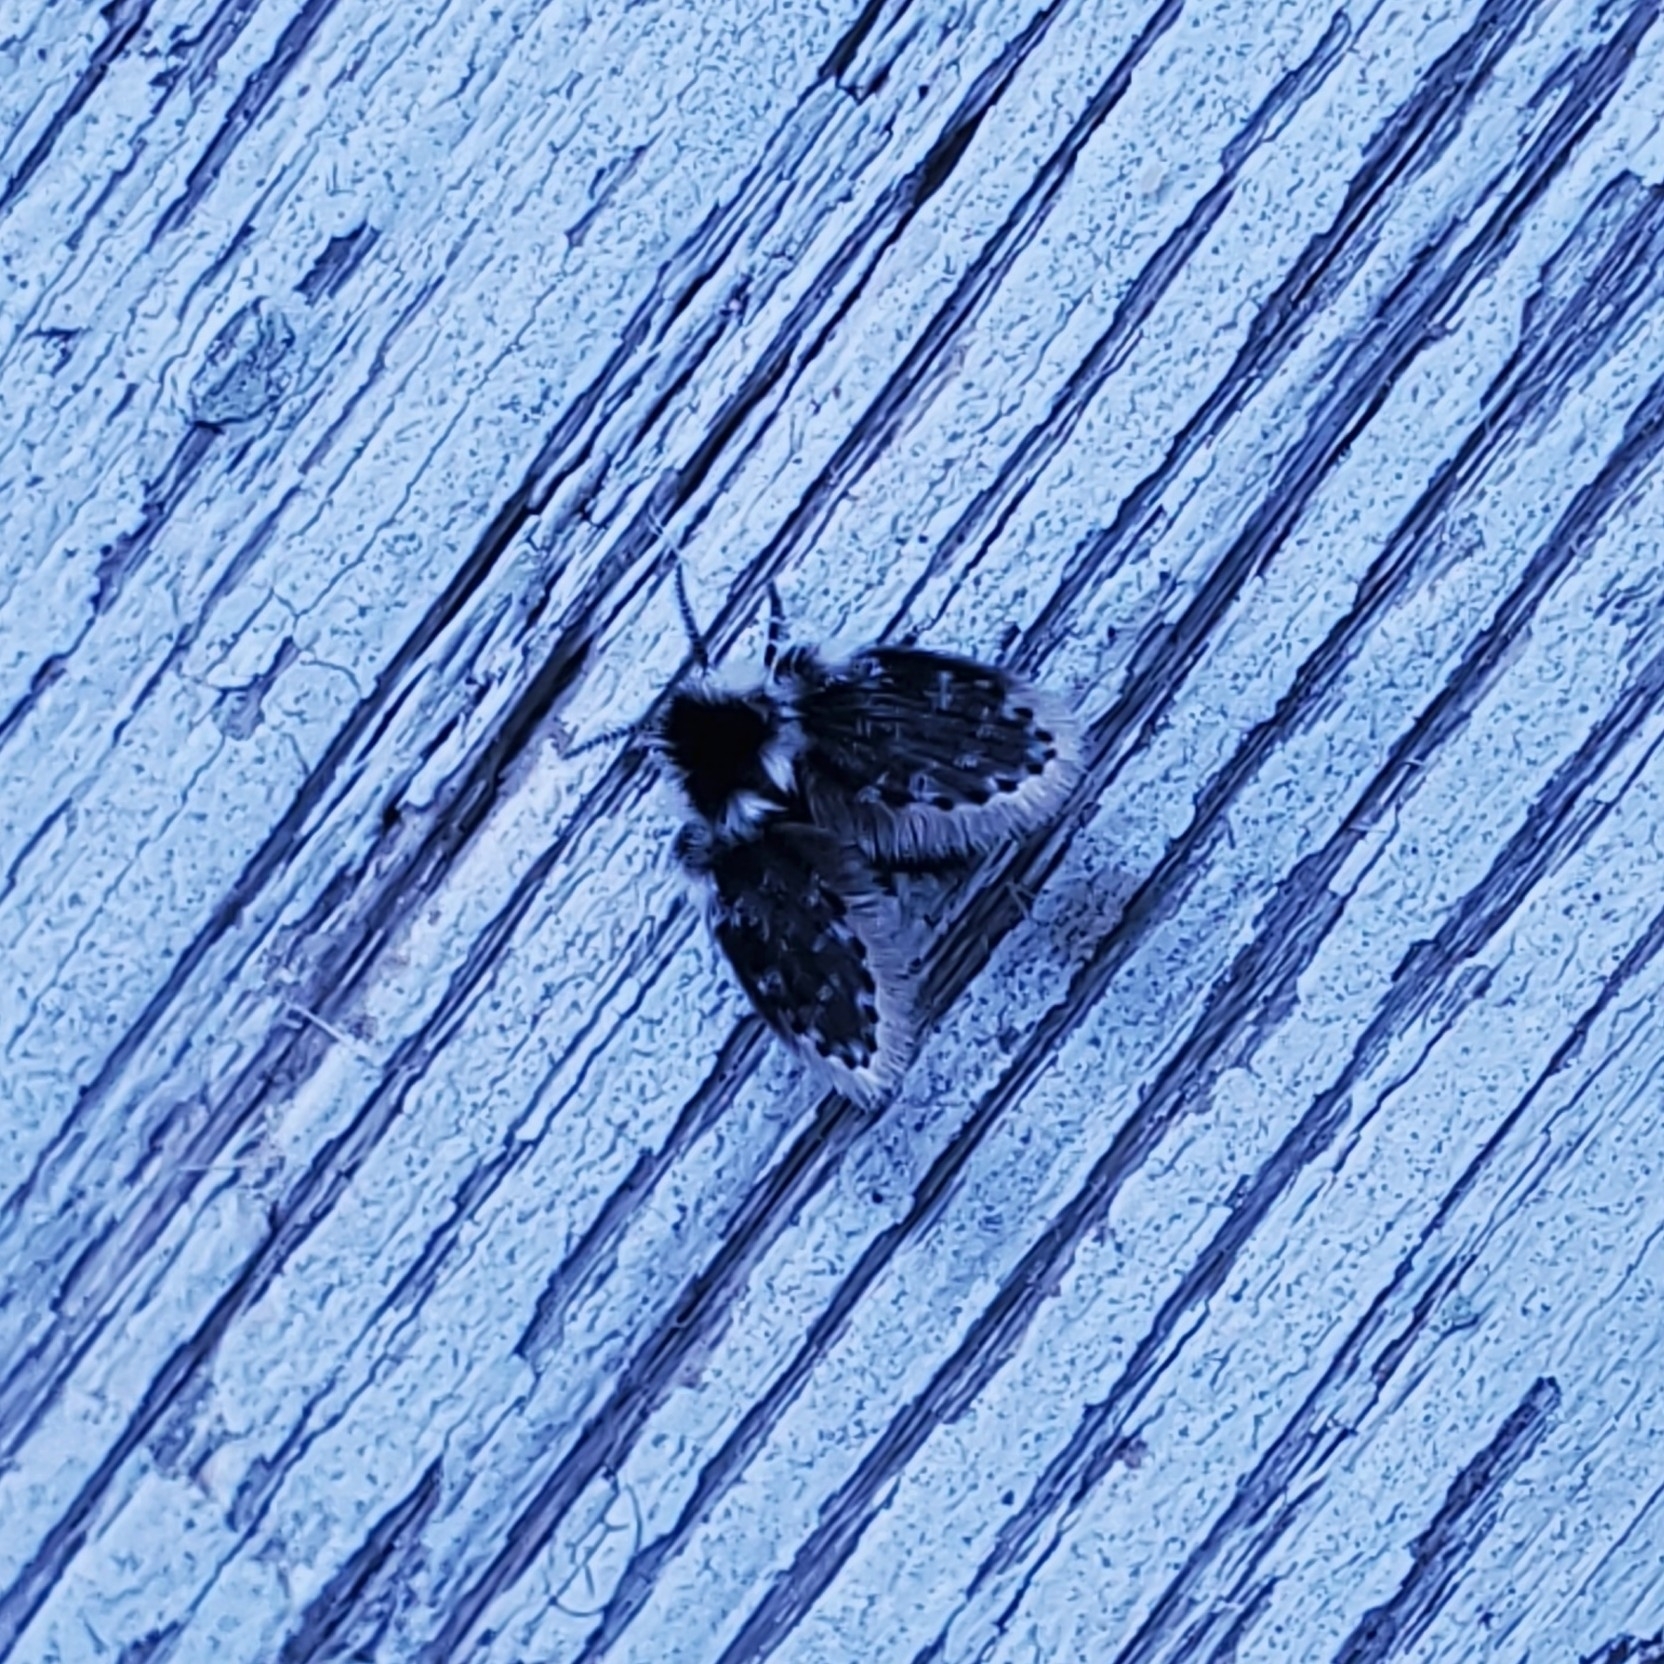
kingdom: Animalia
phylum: Arthropoda
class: Insecta
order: Diptera
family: Psychodidae
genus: Lepiseodina
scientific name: Lepiseodina
